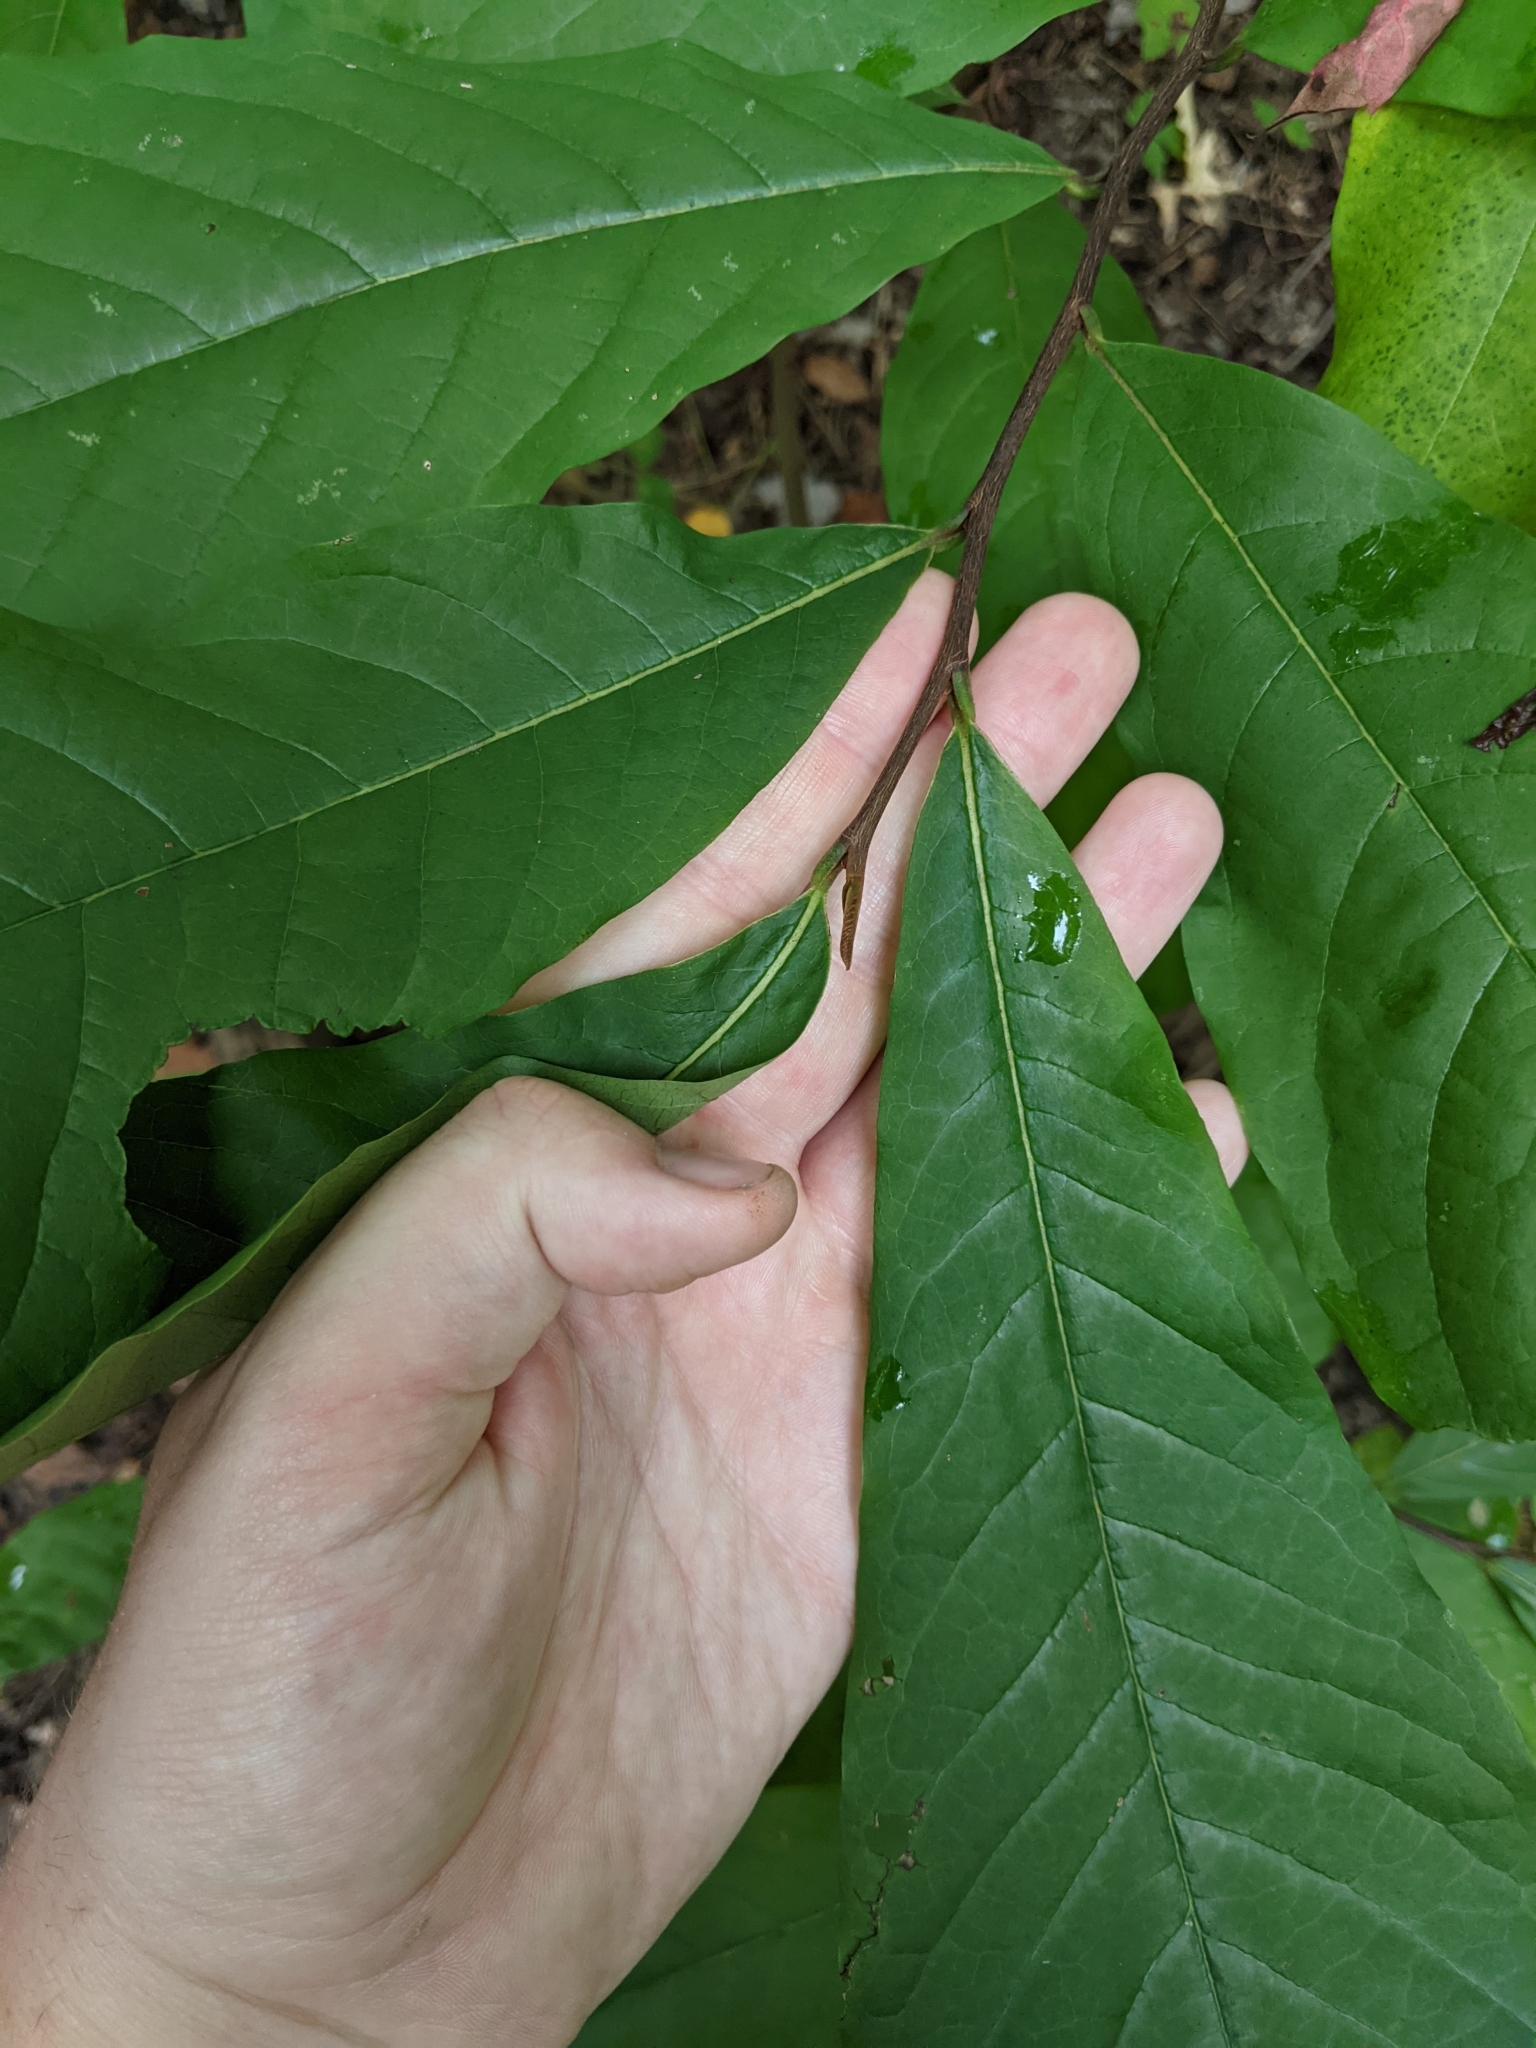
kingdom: Plantae
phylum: Tracheophyta
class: Magnoliopsida
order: Magnoliales
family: Annonaceae
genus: Asimina
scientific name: Asimina triloba
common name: Dog-banana
